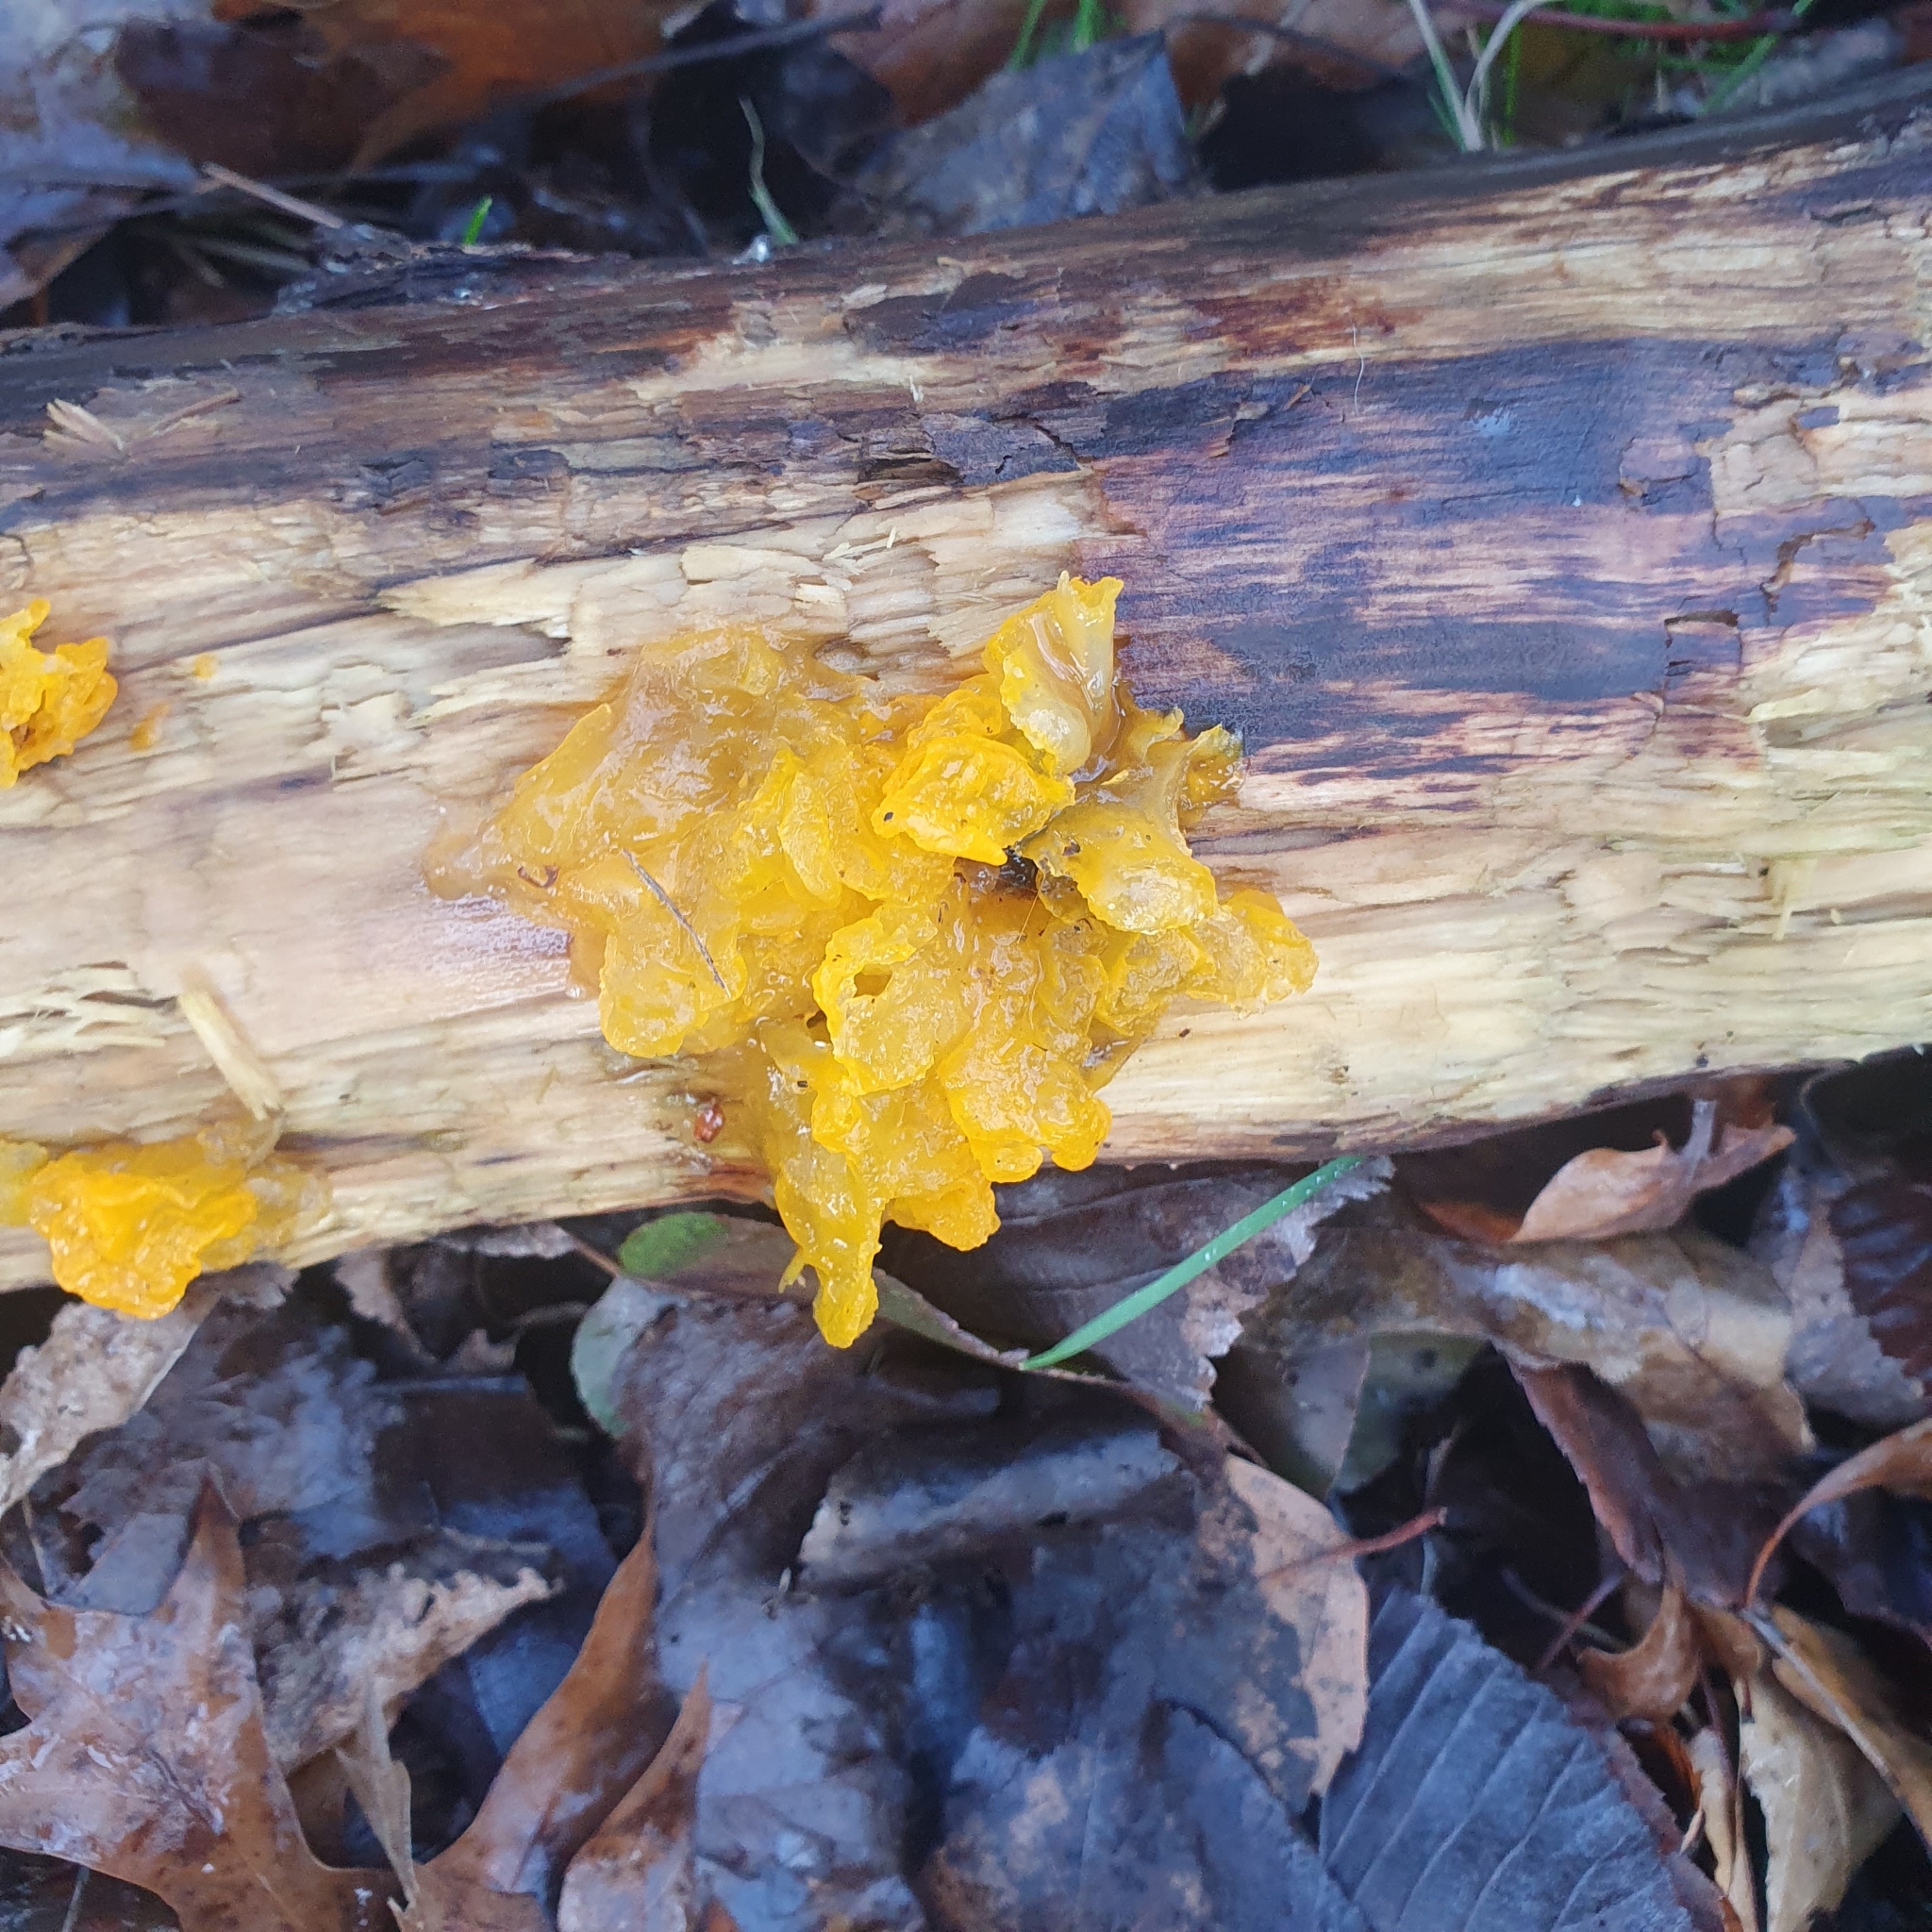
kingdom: Fungi
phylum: Basidiomycota
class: Tremellomycetes
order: Tremellales
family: Tremellaceae
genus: Tremella
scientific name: Tremella mesenterica
